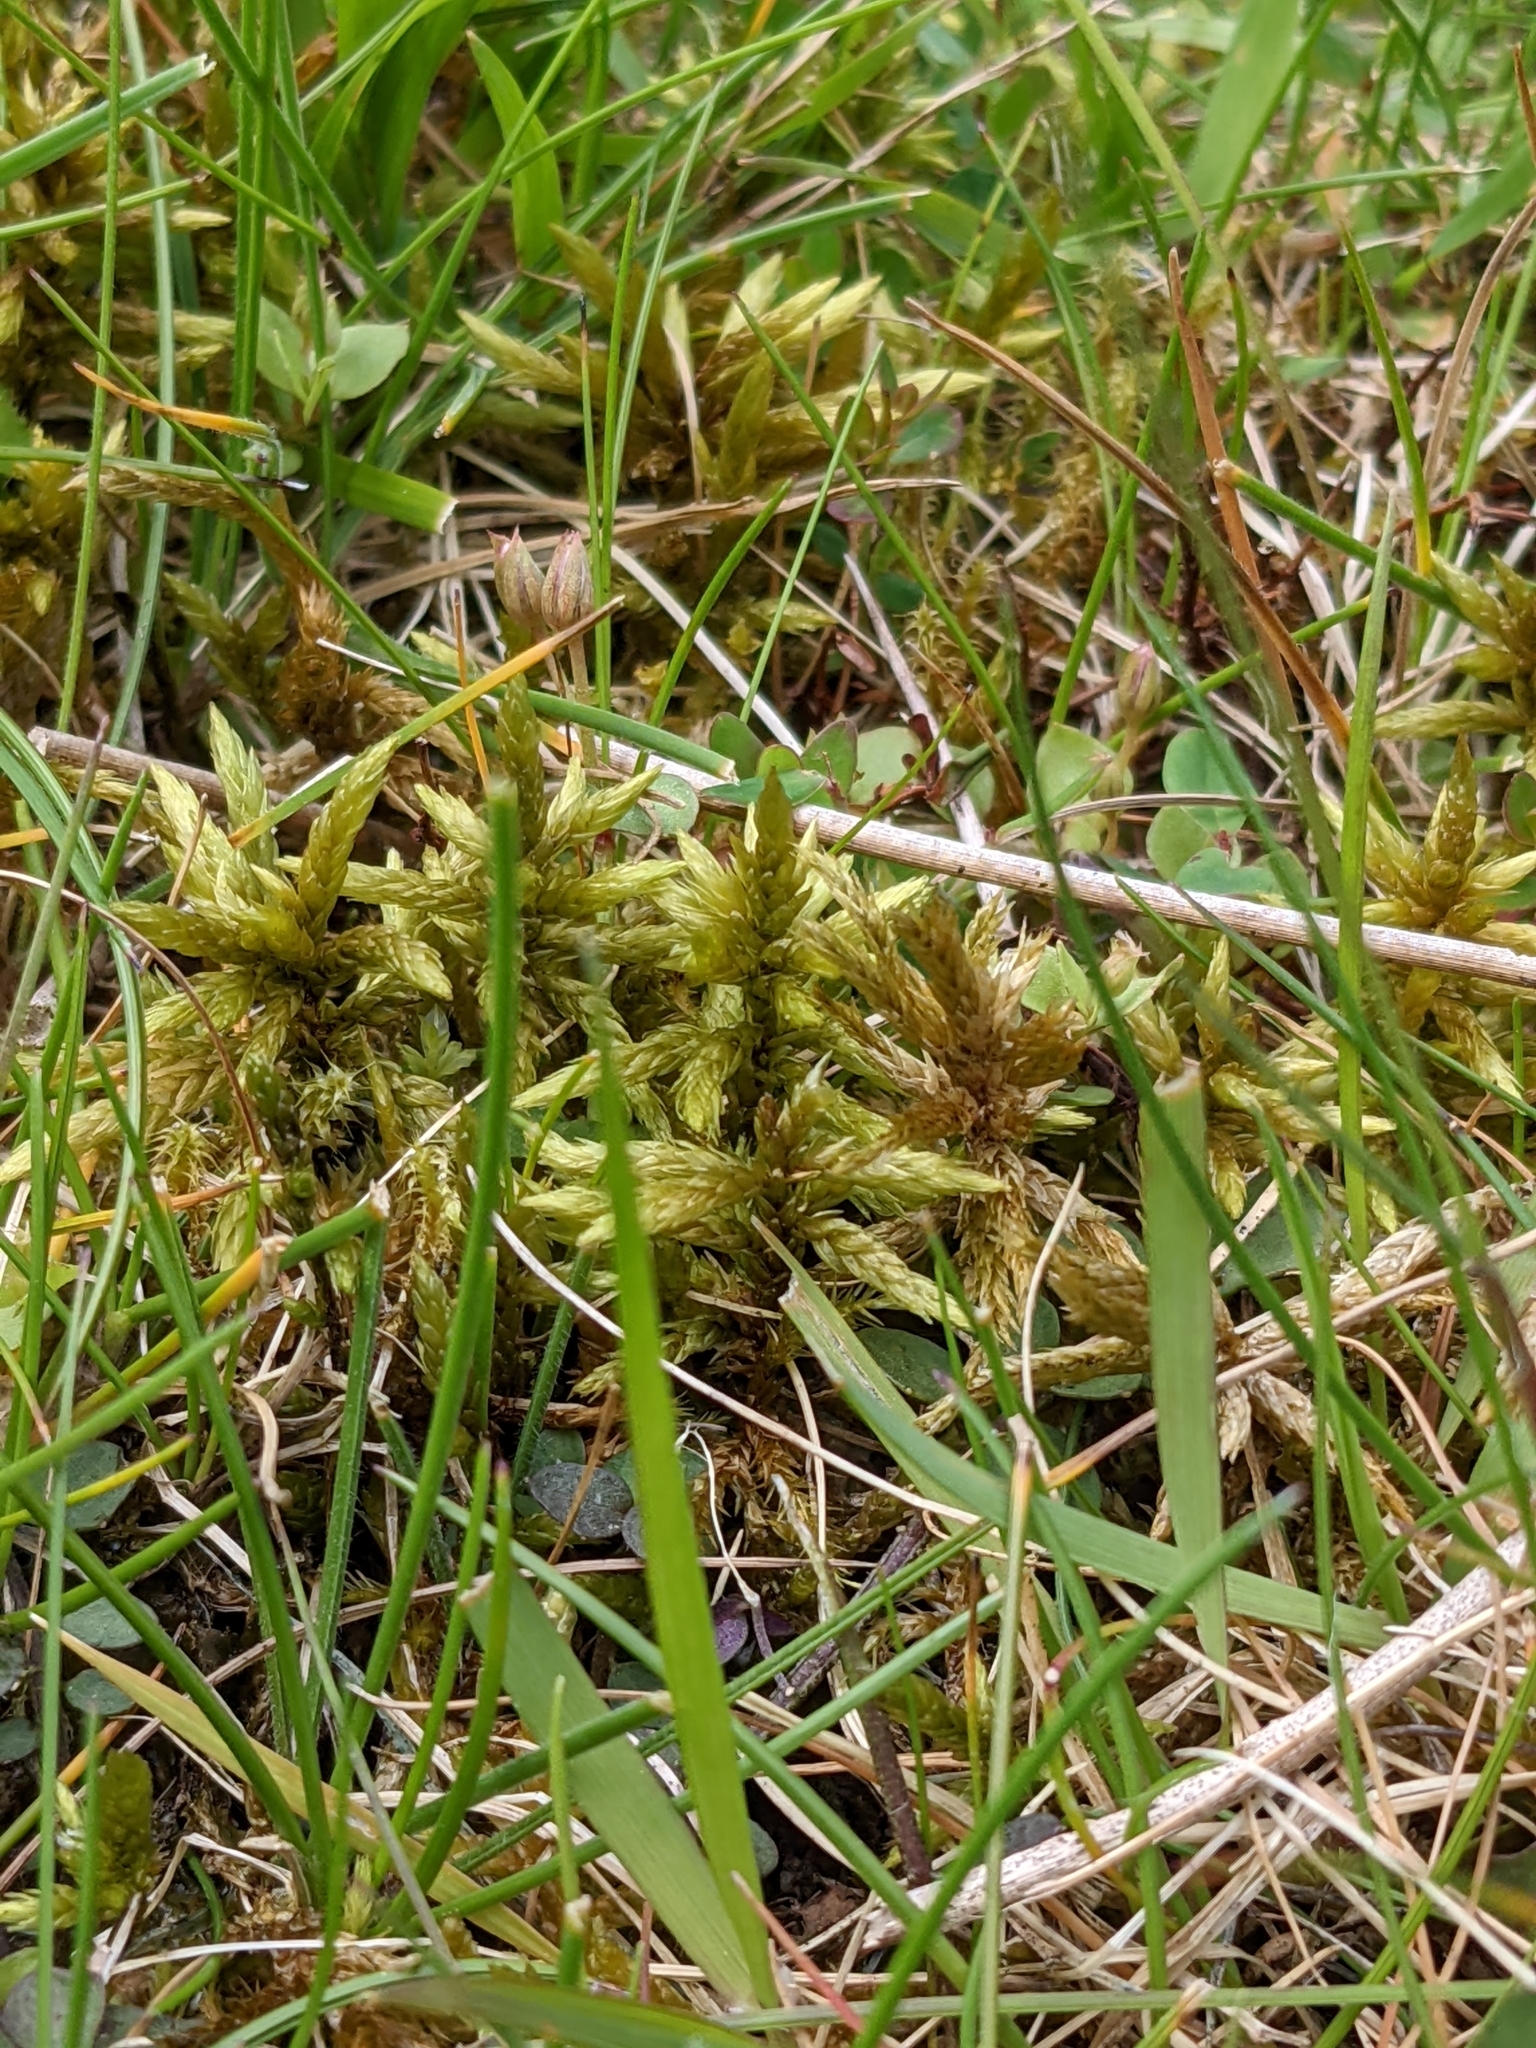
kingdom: Plantae
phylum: Bryophyta
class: Bryopsida
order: Hypnales
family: Climaciaceae
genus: Climacium
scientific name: Climacium dendroides
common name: Northern tree moss
